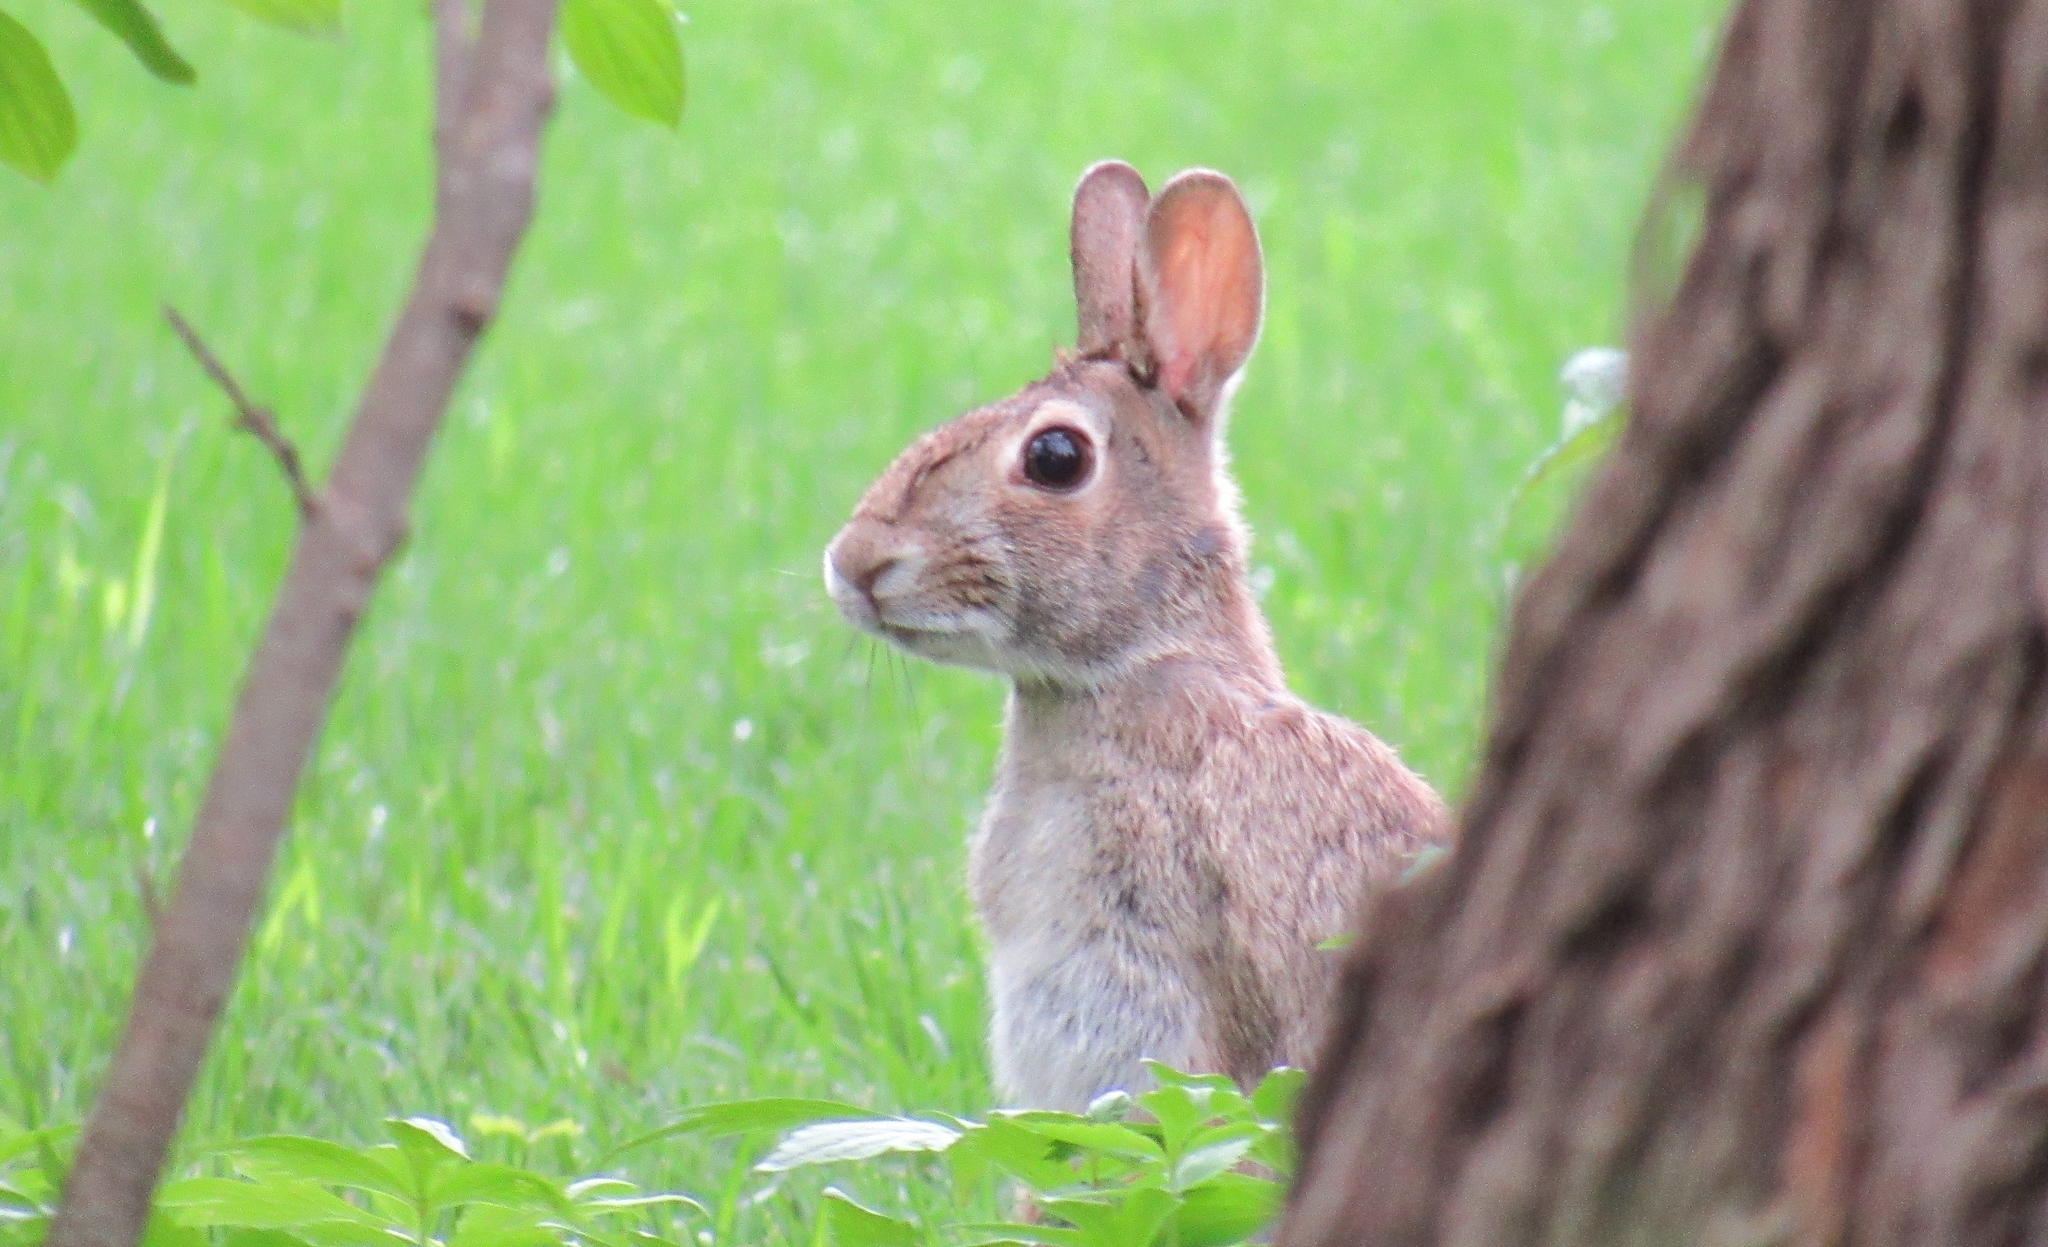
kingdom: Animalia
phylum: Chordata
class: Mammalia
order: Lagomorpha
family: Leporidae
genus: Sylvilagus
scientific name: Sylvilagus floridanus
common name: Eastern cottontail
